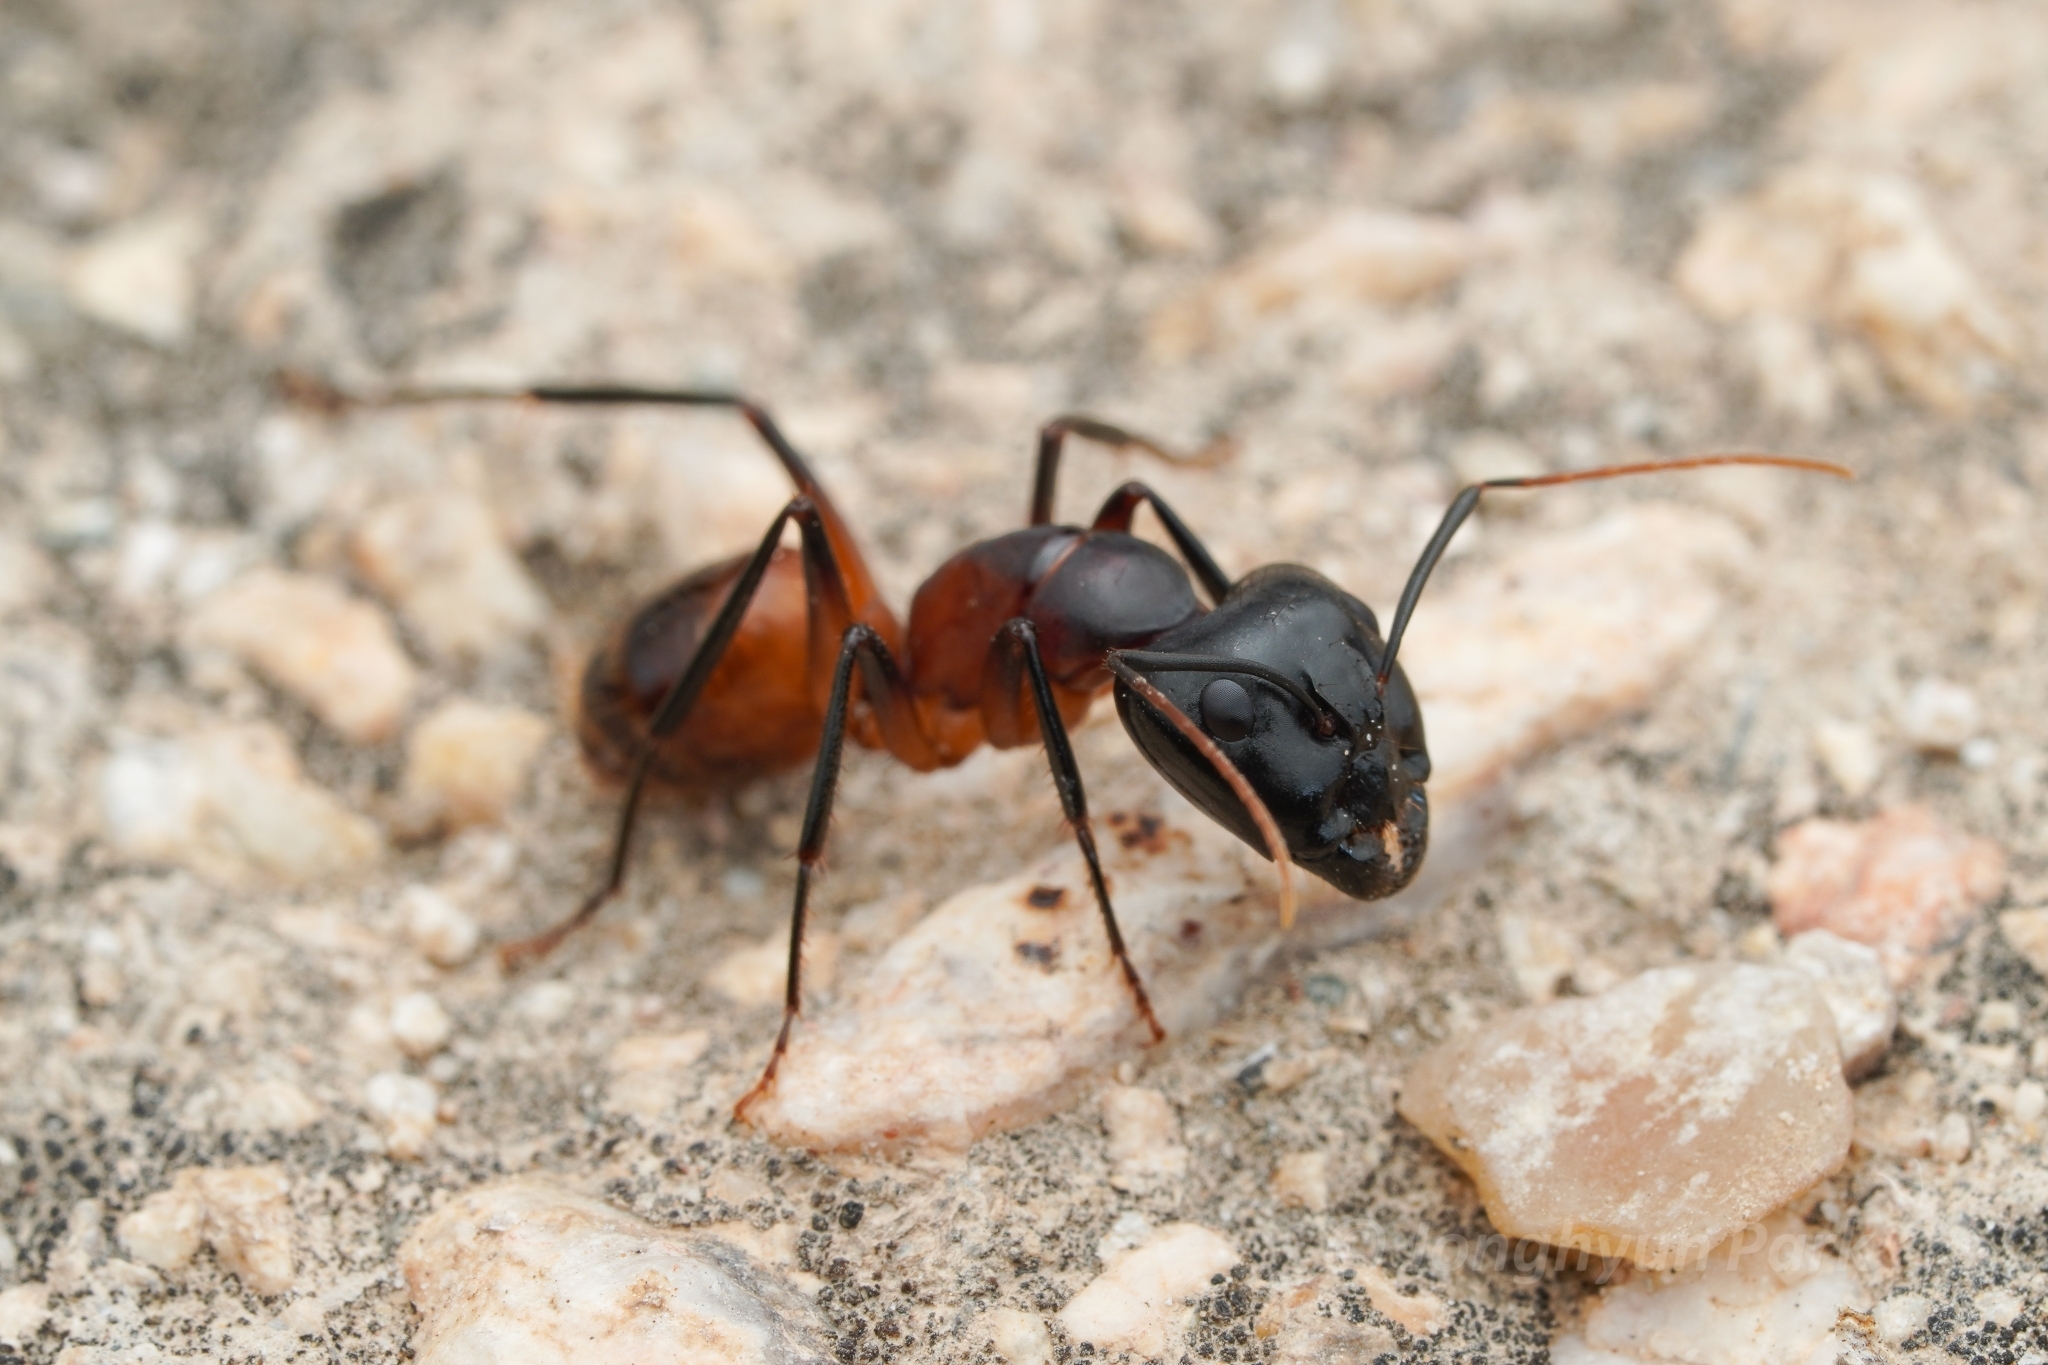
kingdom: Animalia
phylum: Arthropoda
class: Insecta
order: Hymenoptera
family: Formicidae
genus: Camponotus
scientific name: Camponotus ocreatus
